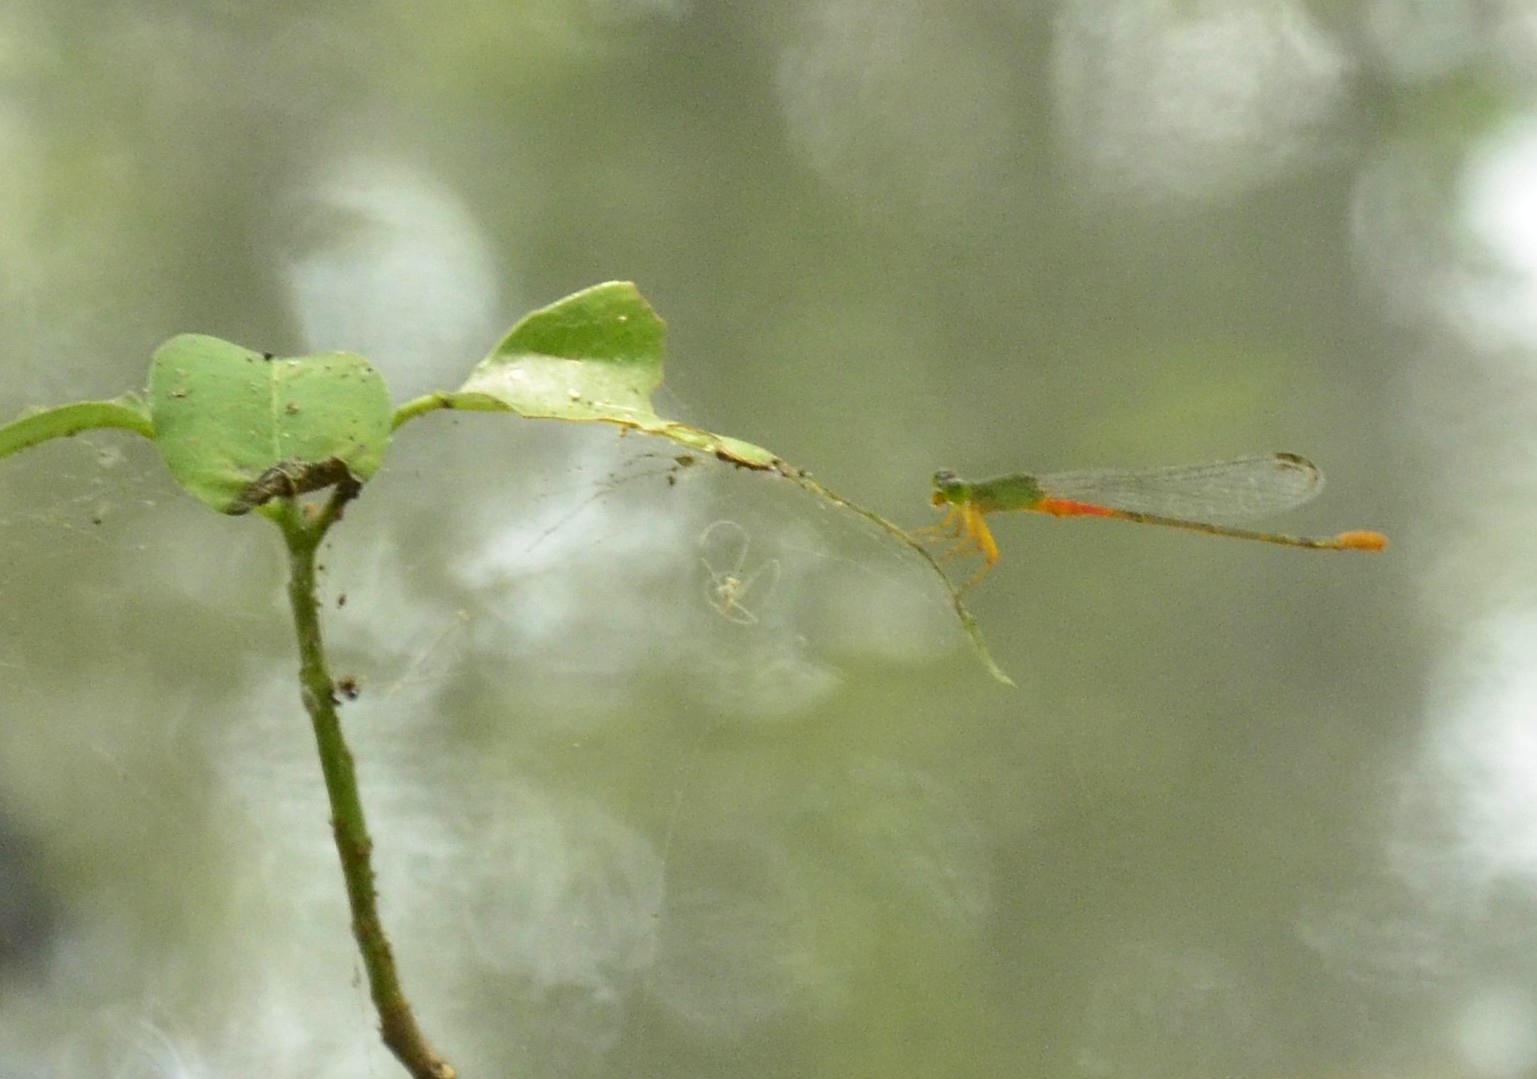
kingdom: Animalia
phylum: Arthropoda
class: Insecta
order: Odonata
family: Coenagrionidae
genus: Ceriagrion
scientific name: Ceriagrion cerinorubellum
